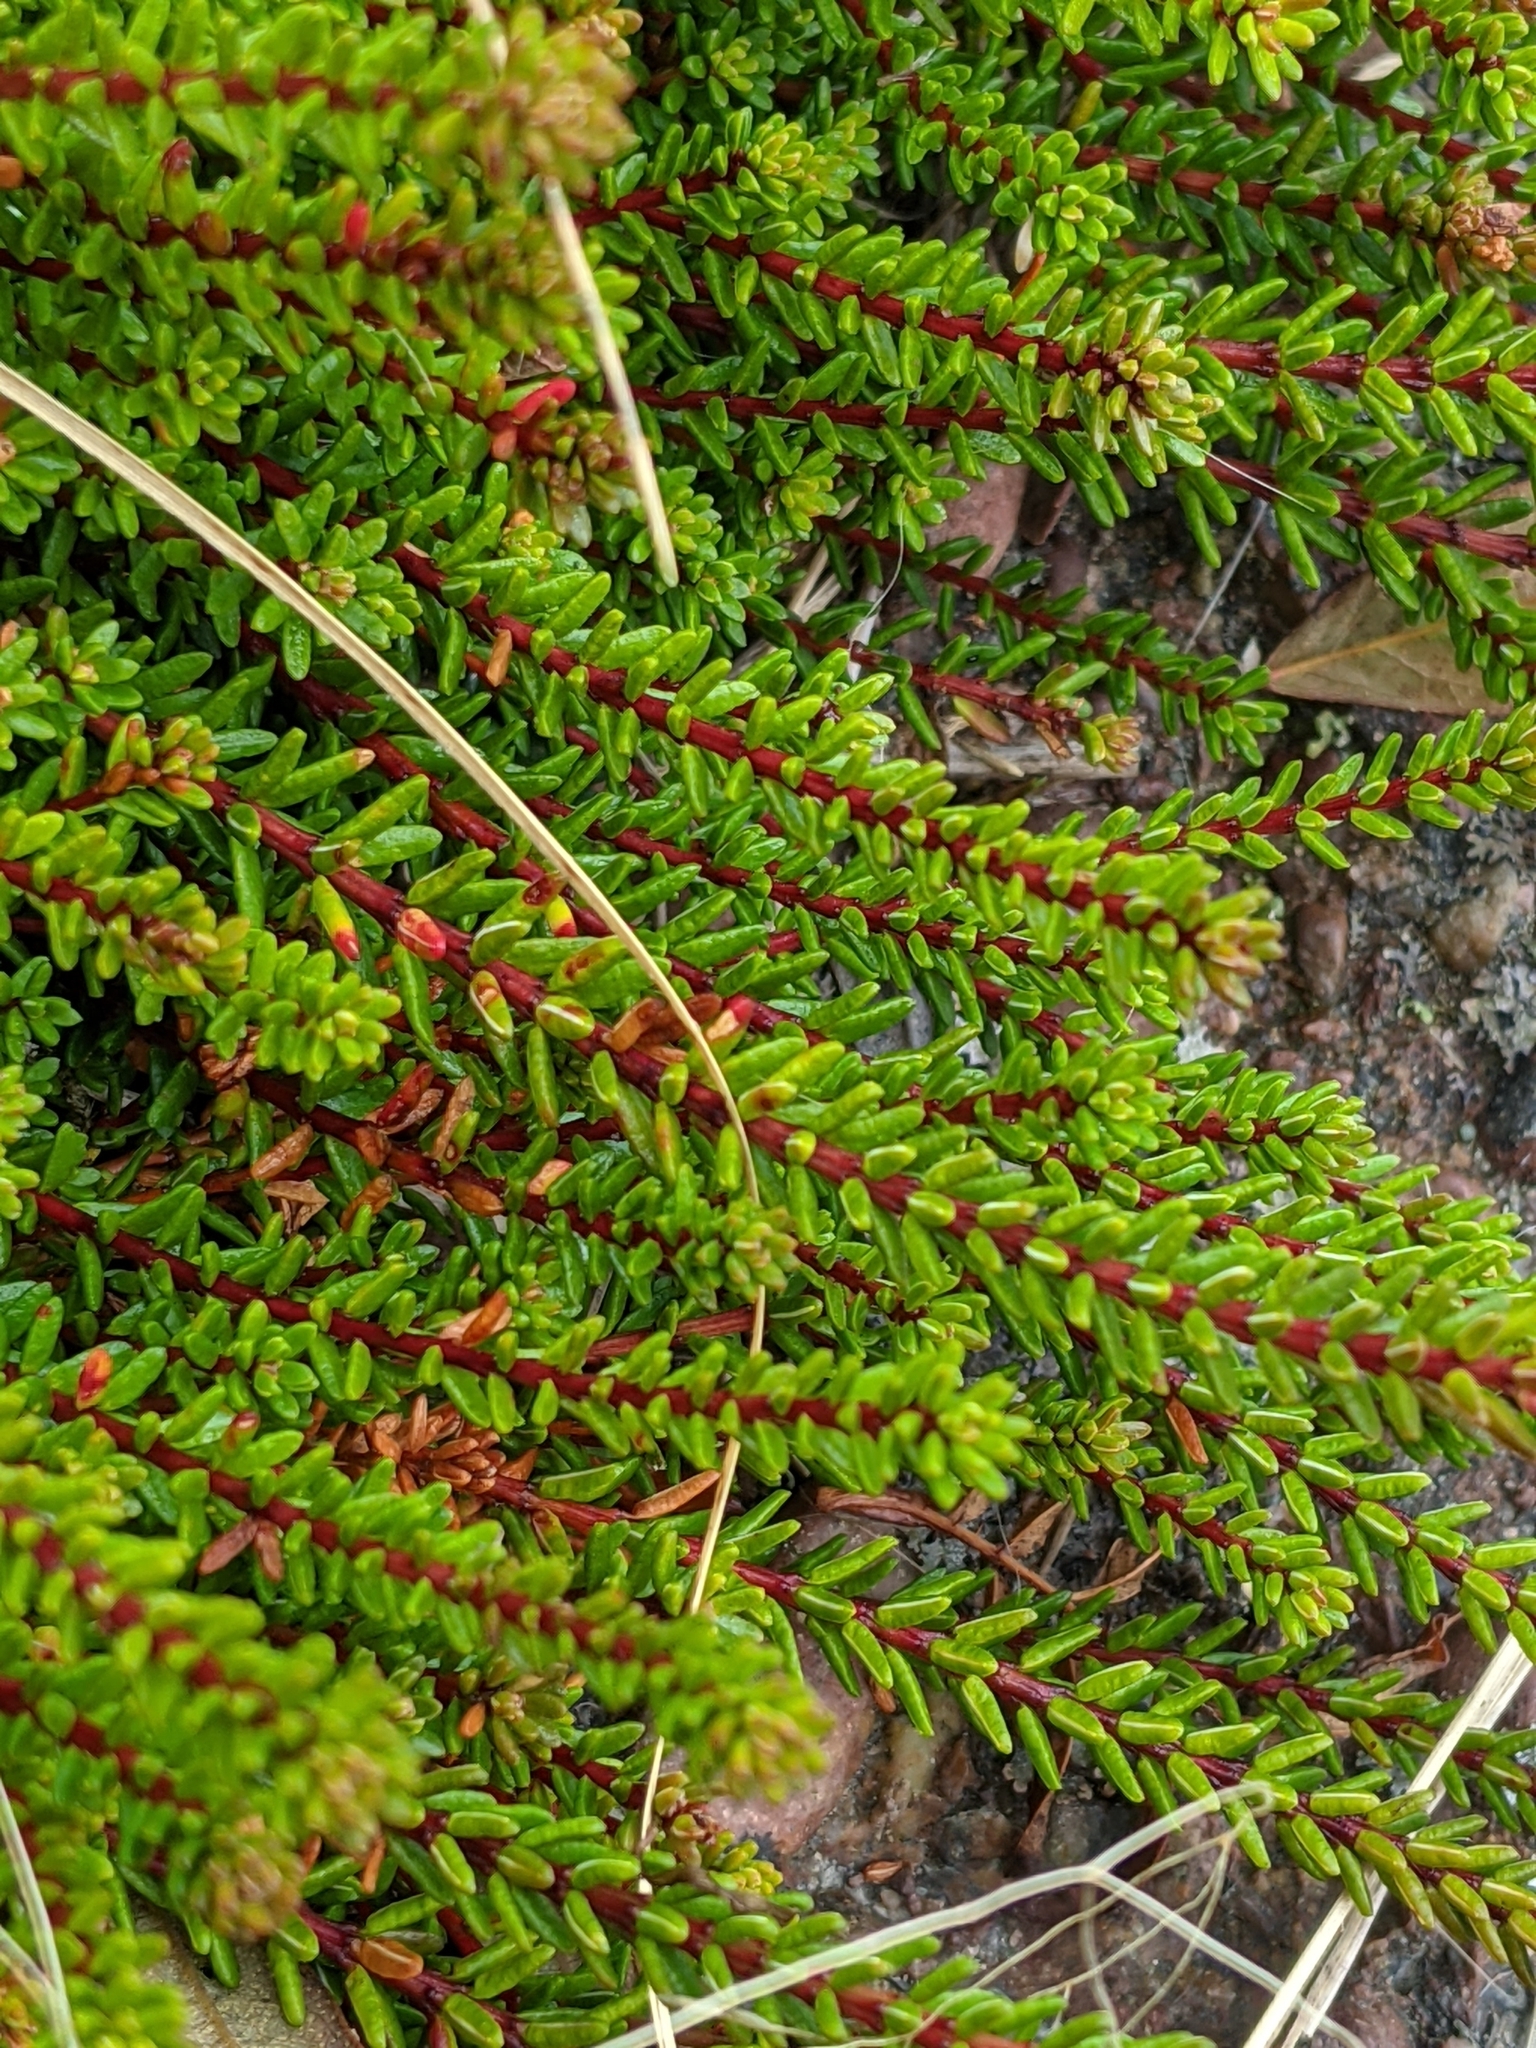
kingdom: Plantae
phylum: Tracheophyta
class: Magnoliopsida
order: Ericales
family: Ericaceae
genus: Empetrum
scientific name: Empetrum nigrum
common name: Black crowberry
